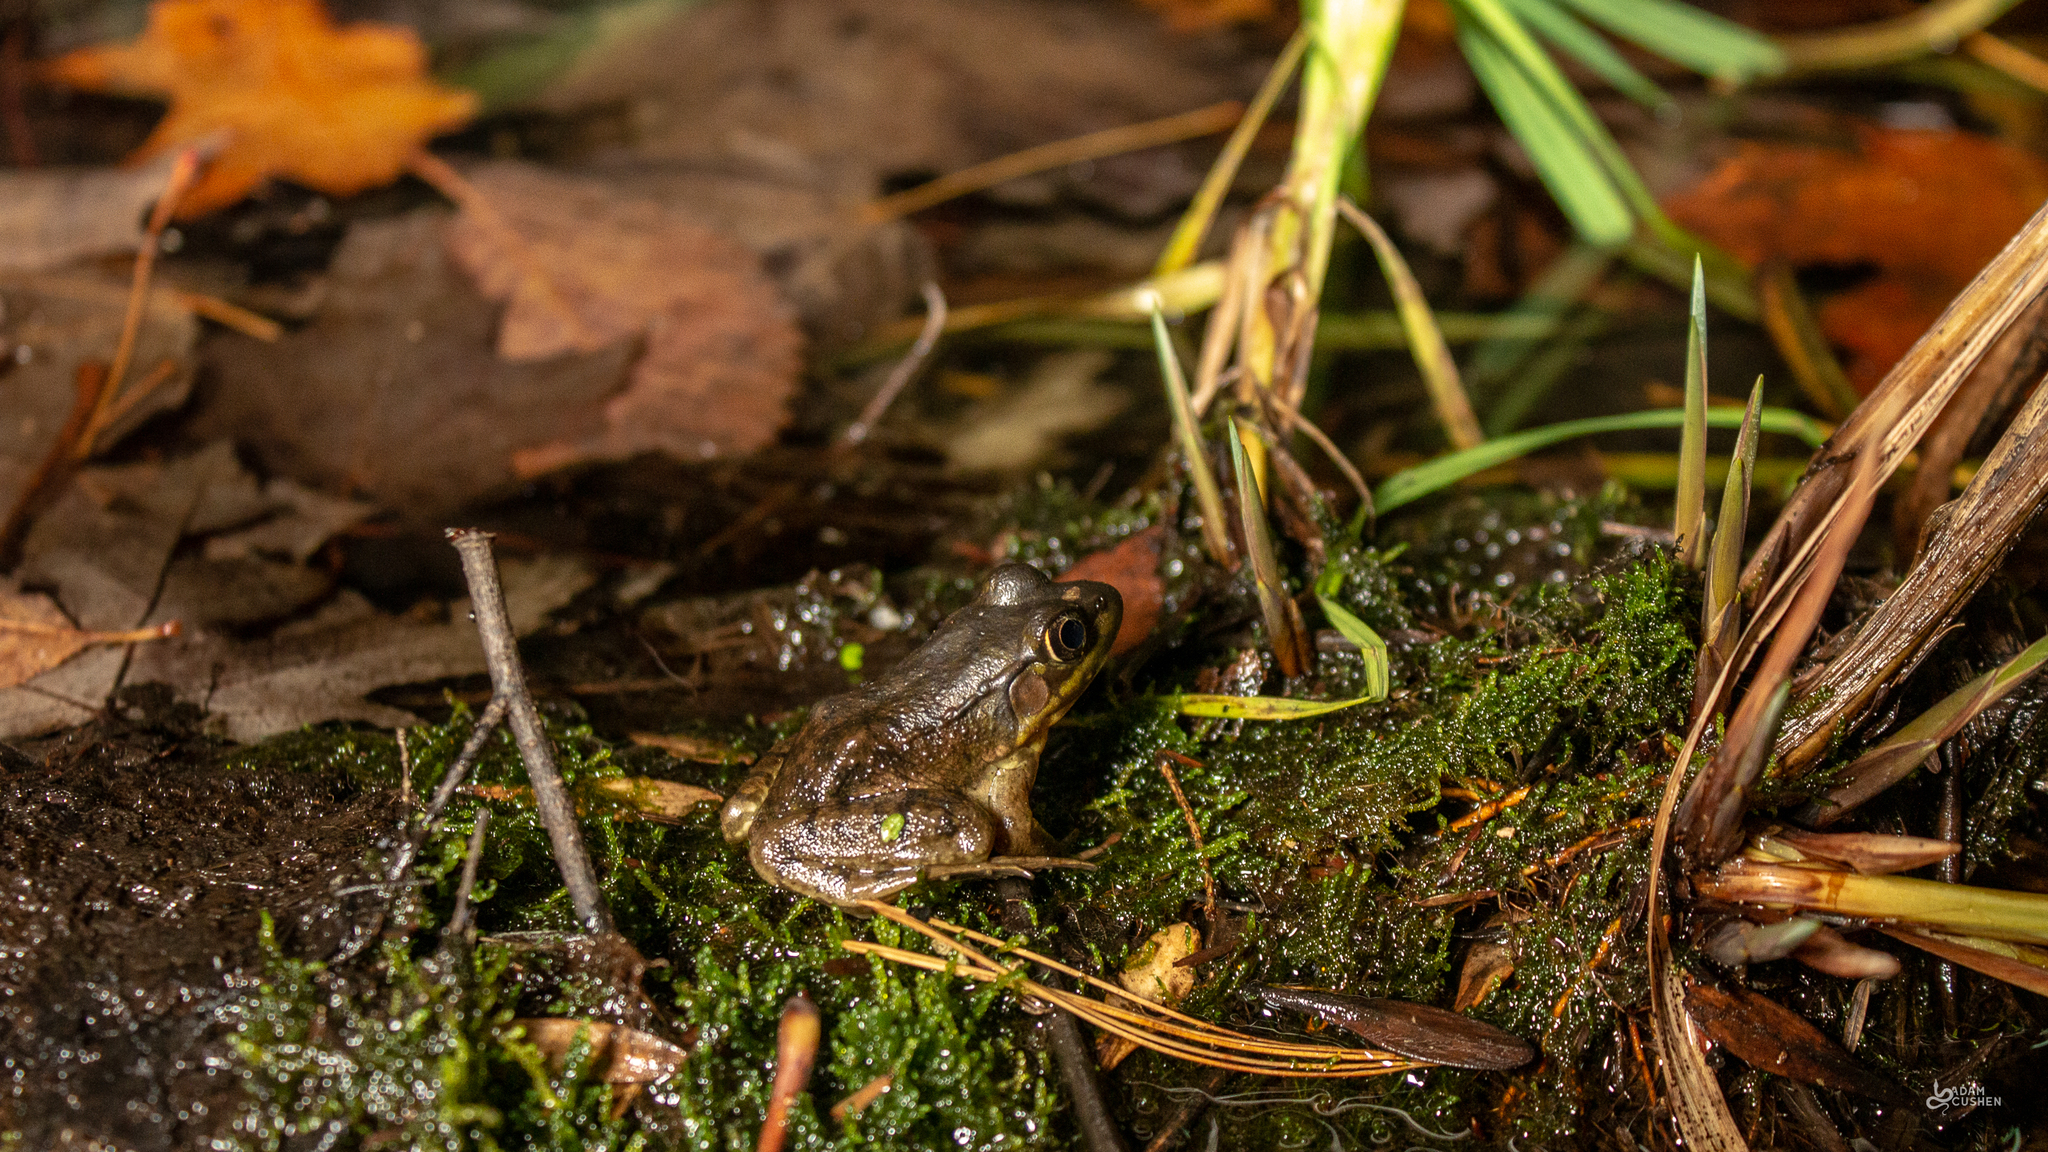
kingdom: Animalia
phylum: Chordata
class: Amphibia
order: Anura
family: Ranidae
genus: Lithobates
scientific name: Lithobates clamitans
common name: Green frog
